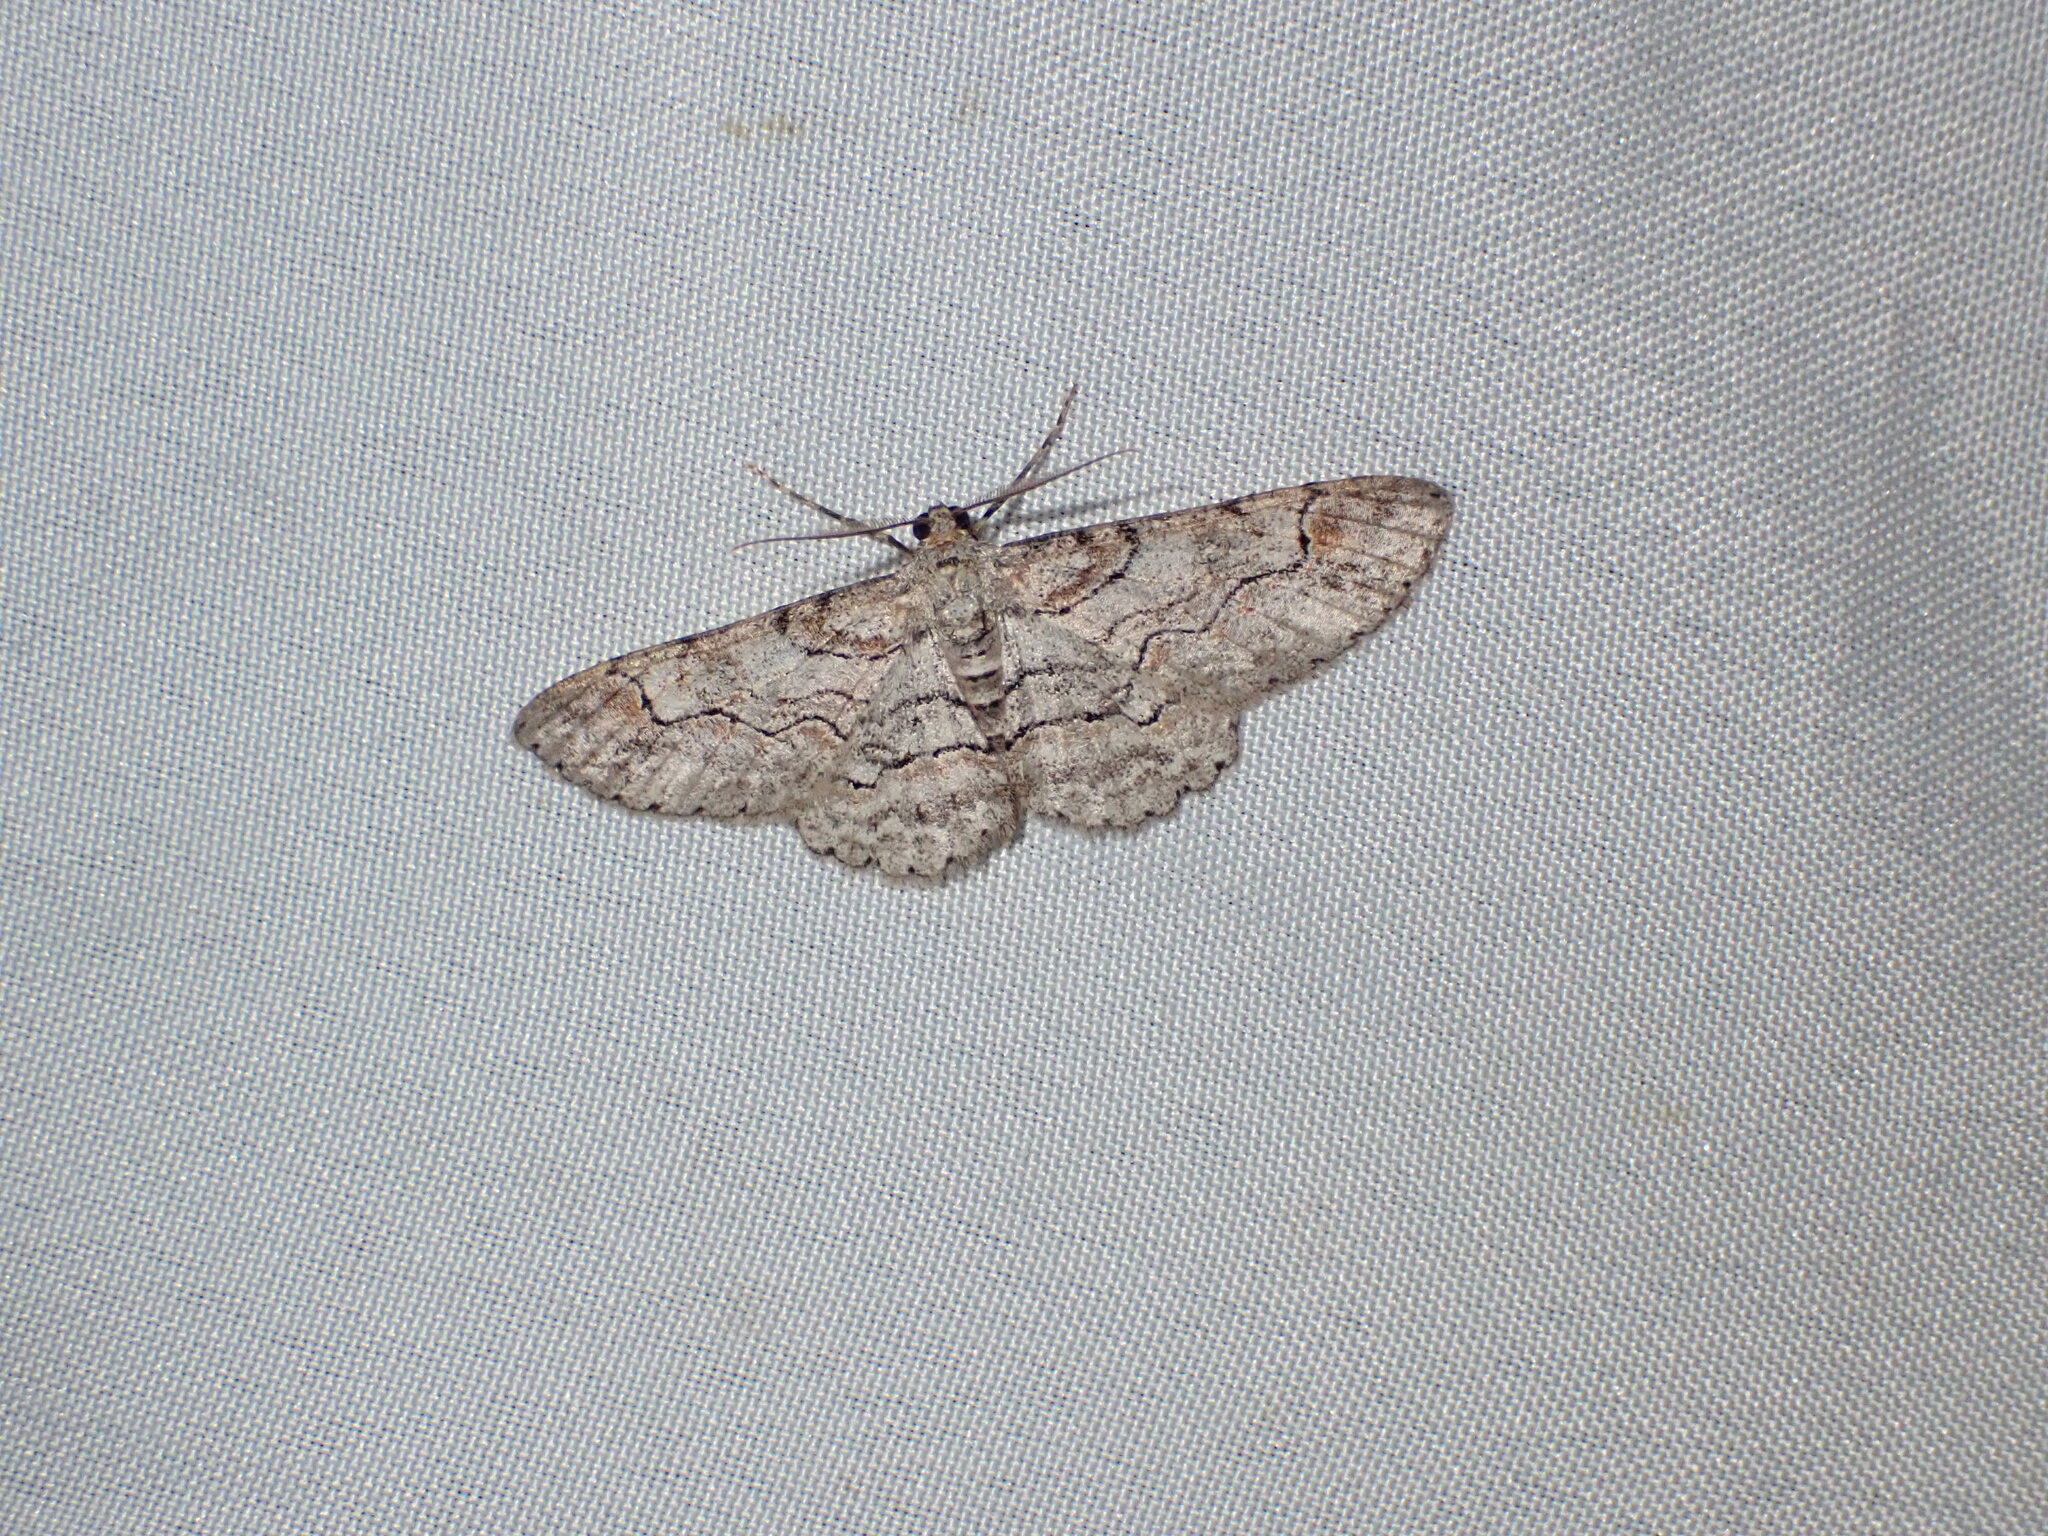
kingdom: Animalia
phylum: Arthropoda
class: Insecta
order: Lepidoptera
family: Geometridae
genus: Iridopsis
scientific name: Iridopsis emasculatum
